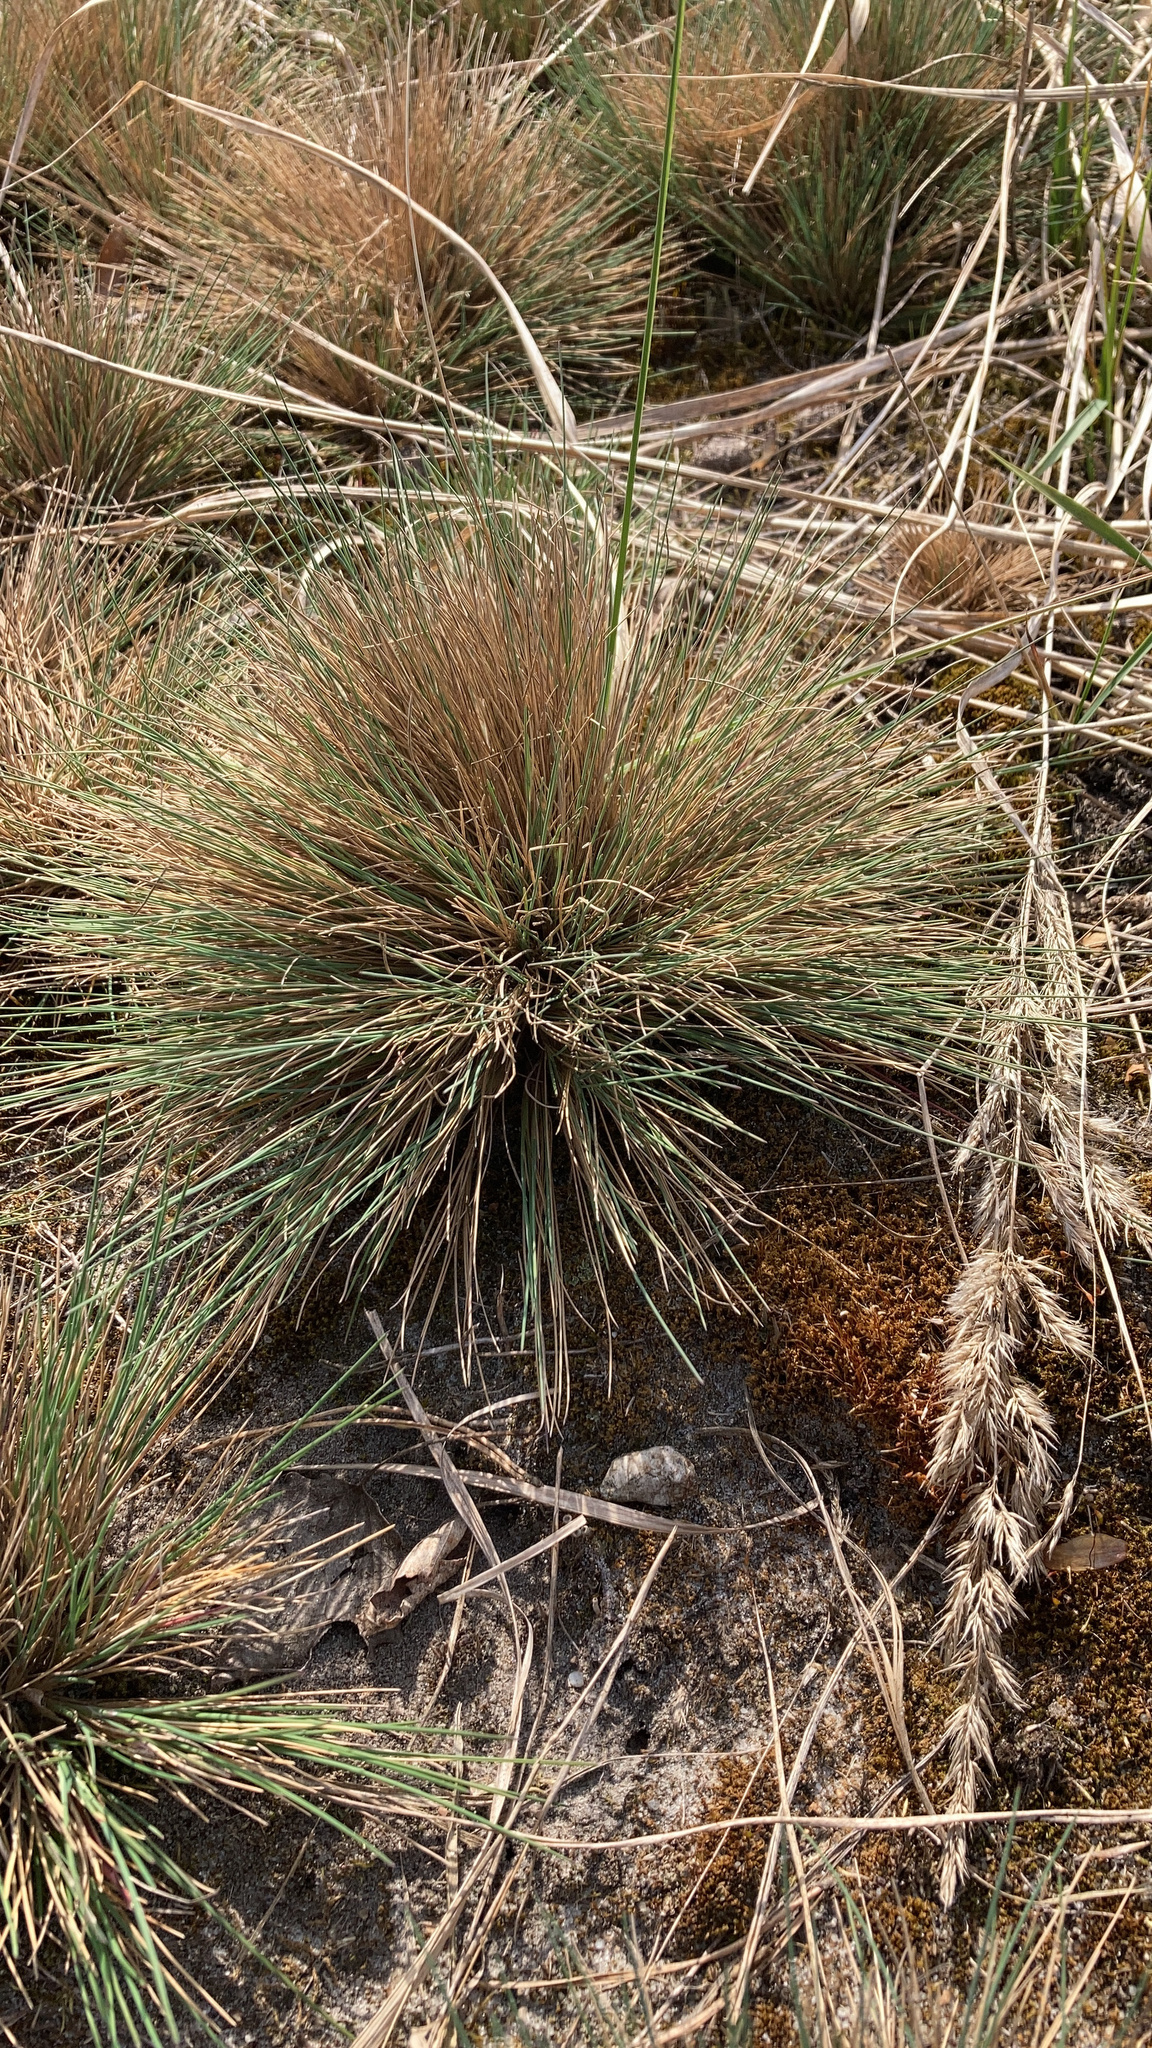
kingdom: Plantae
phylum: Tracheophyta
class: Liliopsida
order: Poales
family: Poaceae
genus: Corynephorus
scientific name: Corynephorus canescens
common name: Grey hair-grass
